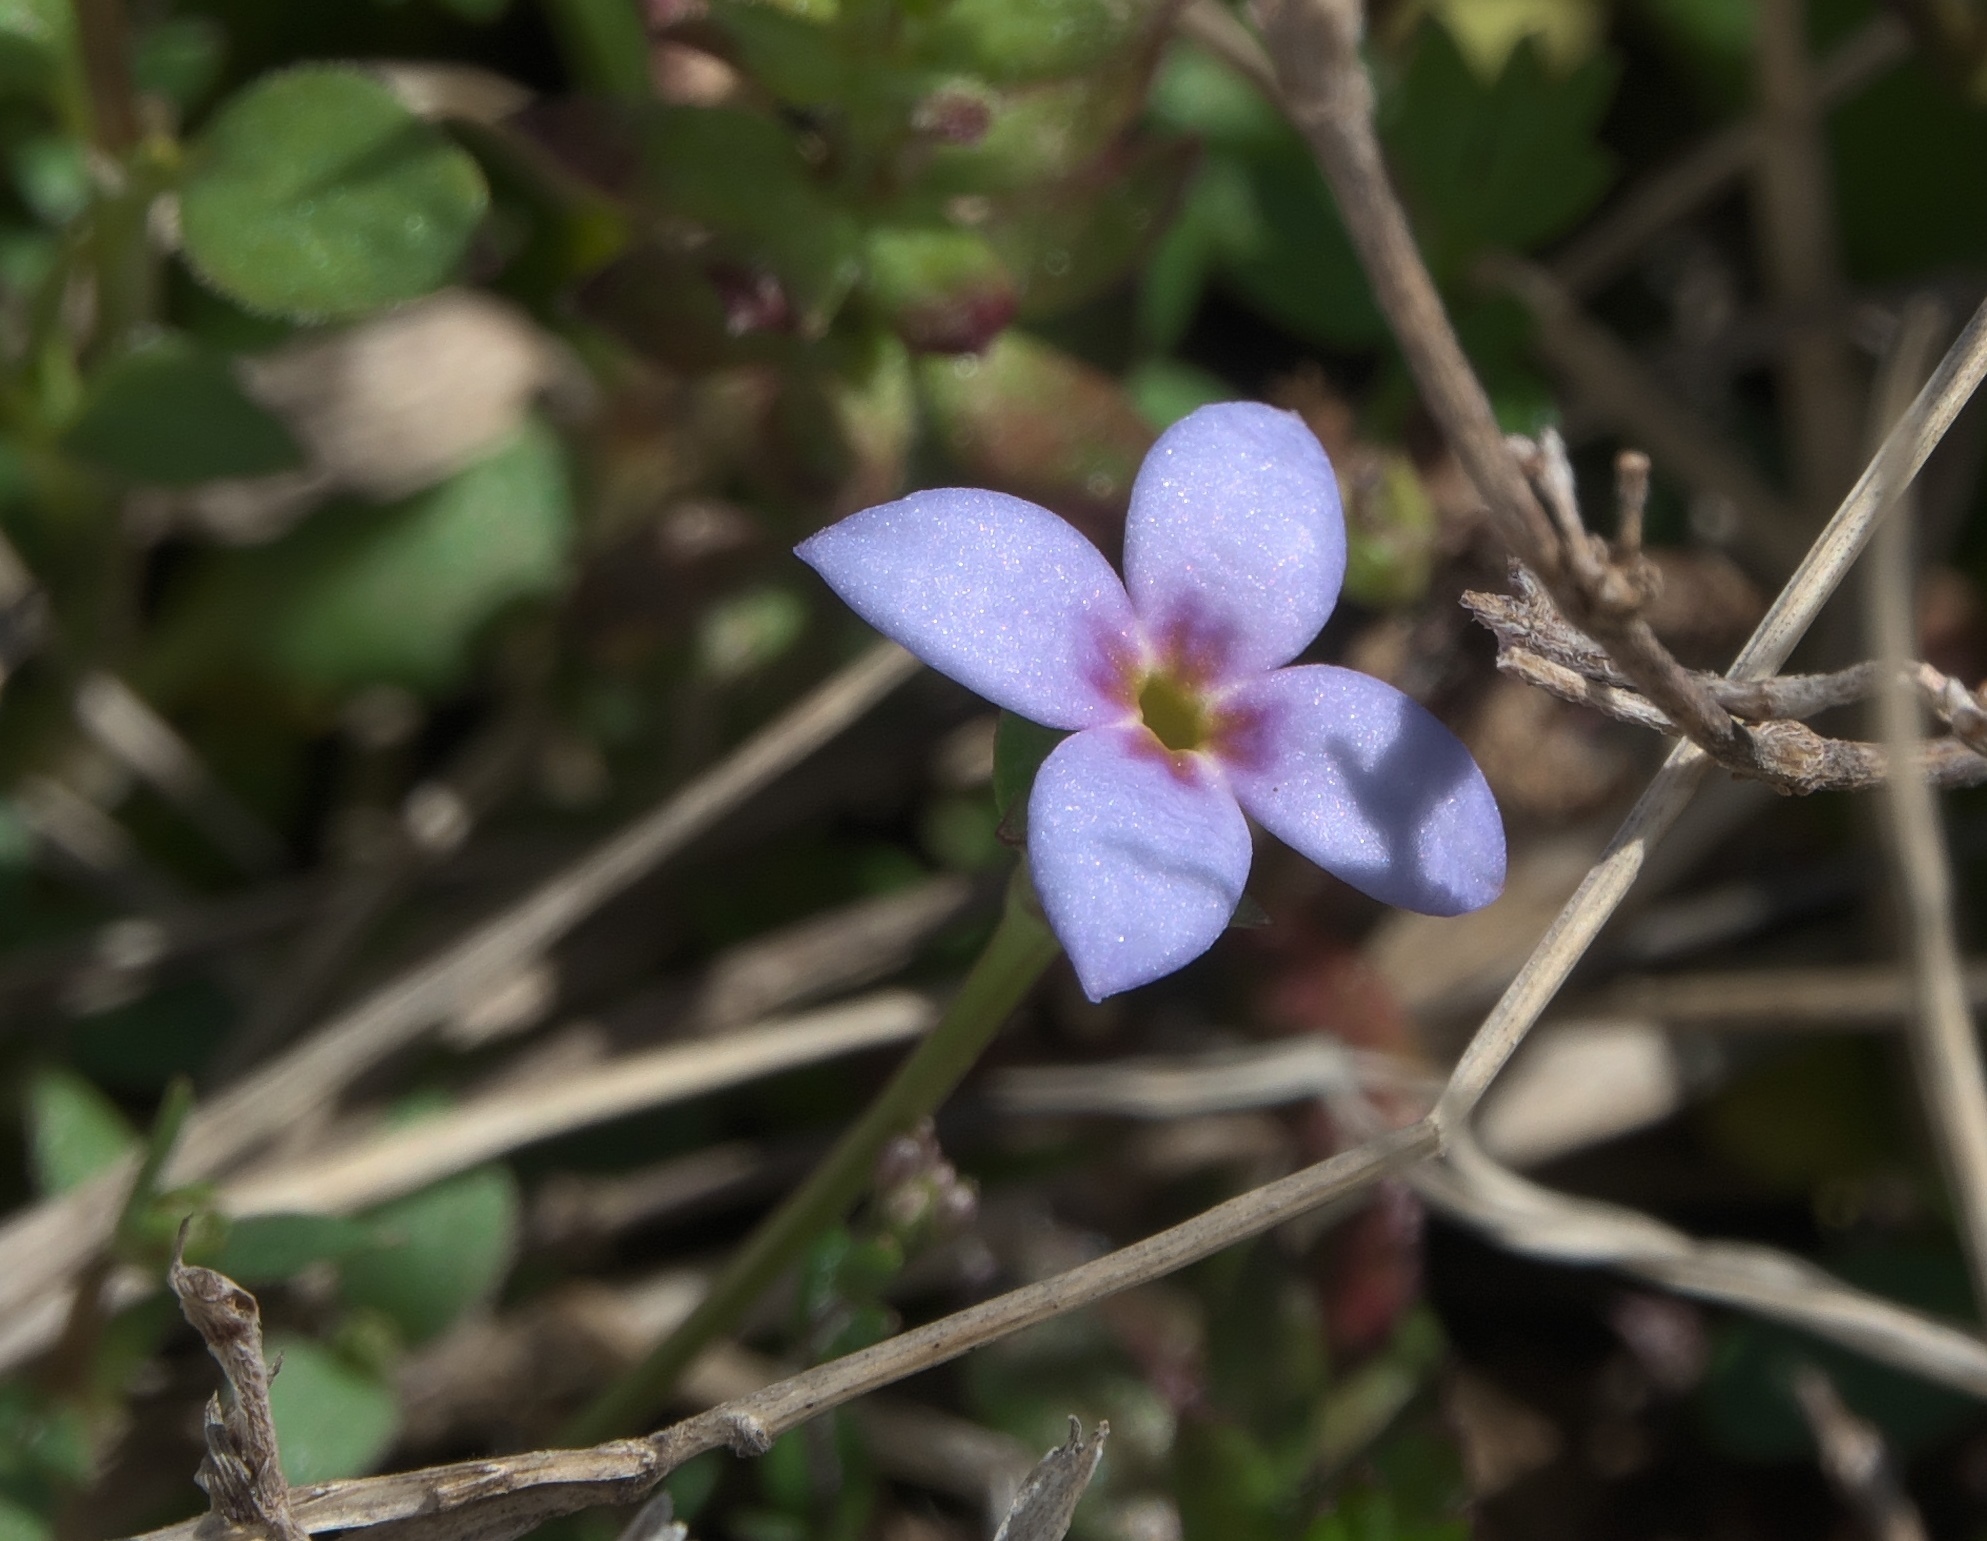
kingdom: Plantae
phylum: Tracheophyta
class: Magnoliopsida
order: Gentianales
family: Rubiaceae
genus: Houstonia
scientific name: Houstonia pusilla
